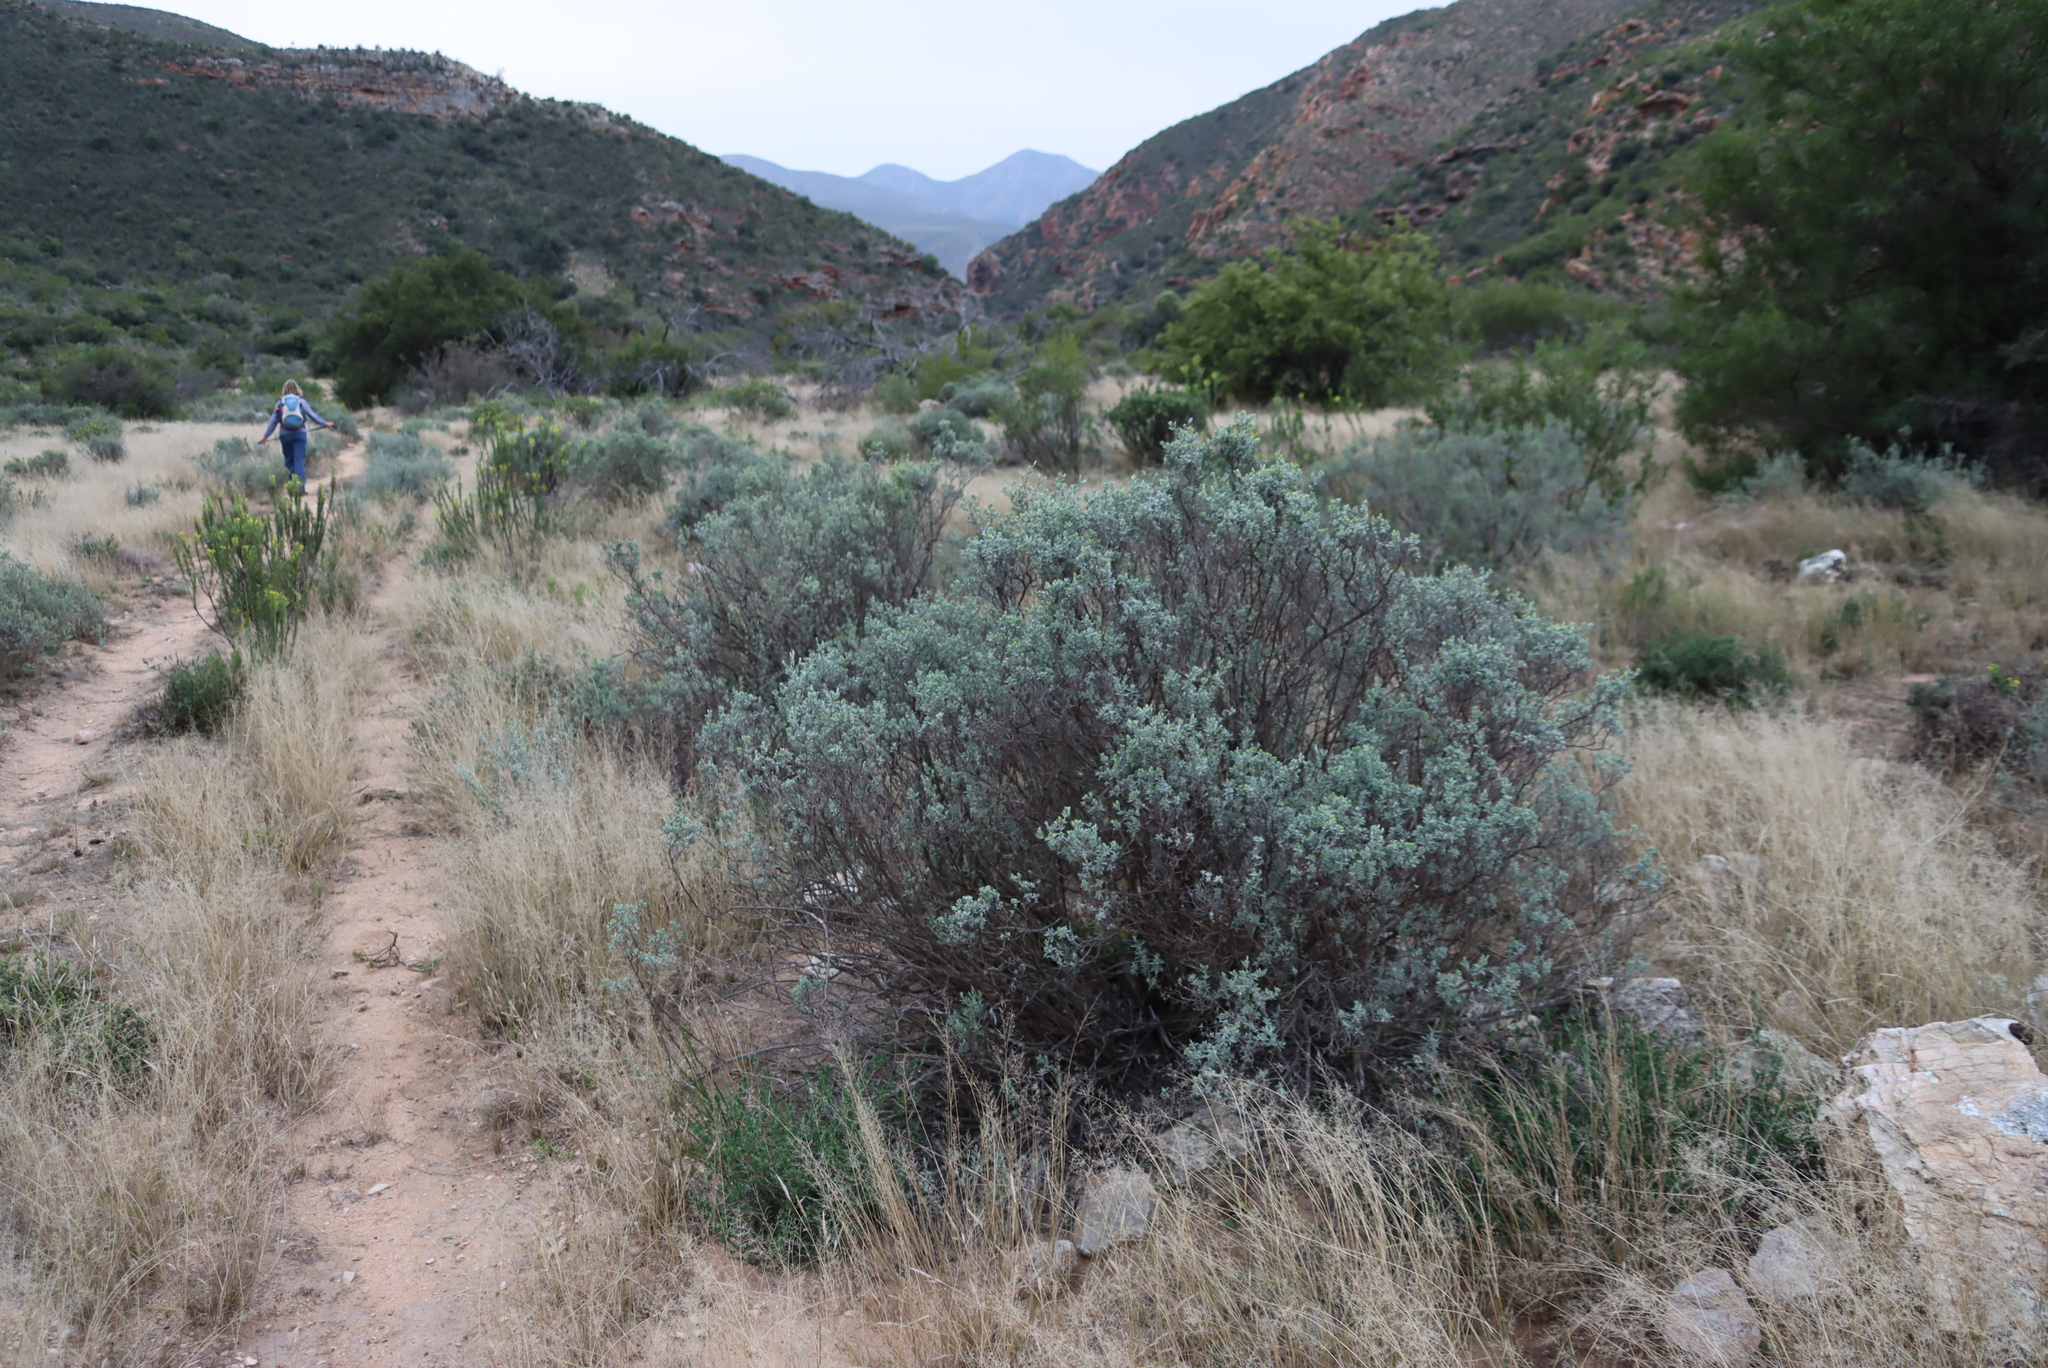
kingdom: Plantae
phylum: Tracheophyta
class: Magnoliopsida
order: Asterales
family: Asteraceae
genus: Pteronia
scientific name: Pteronia incana
